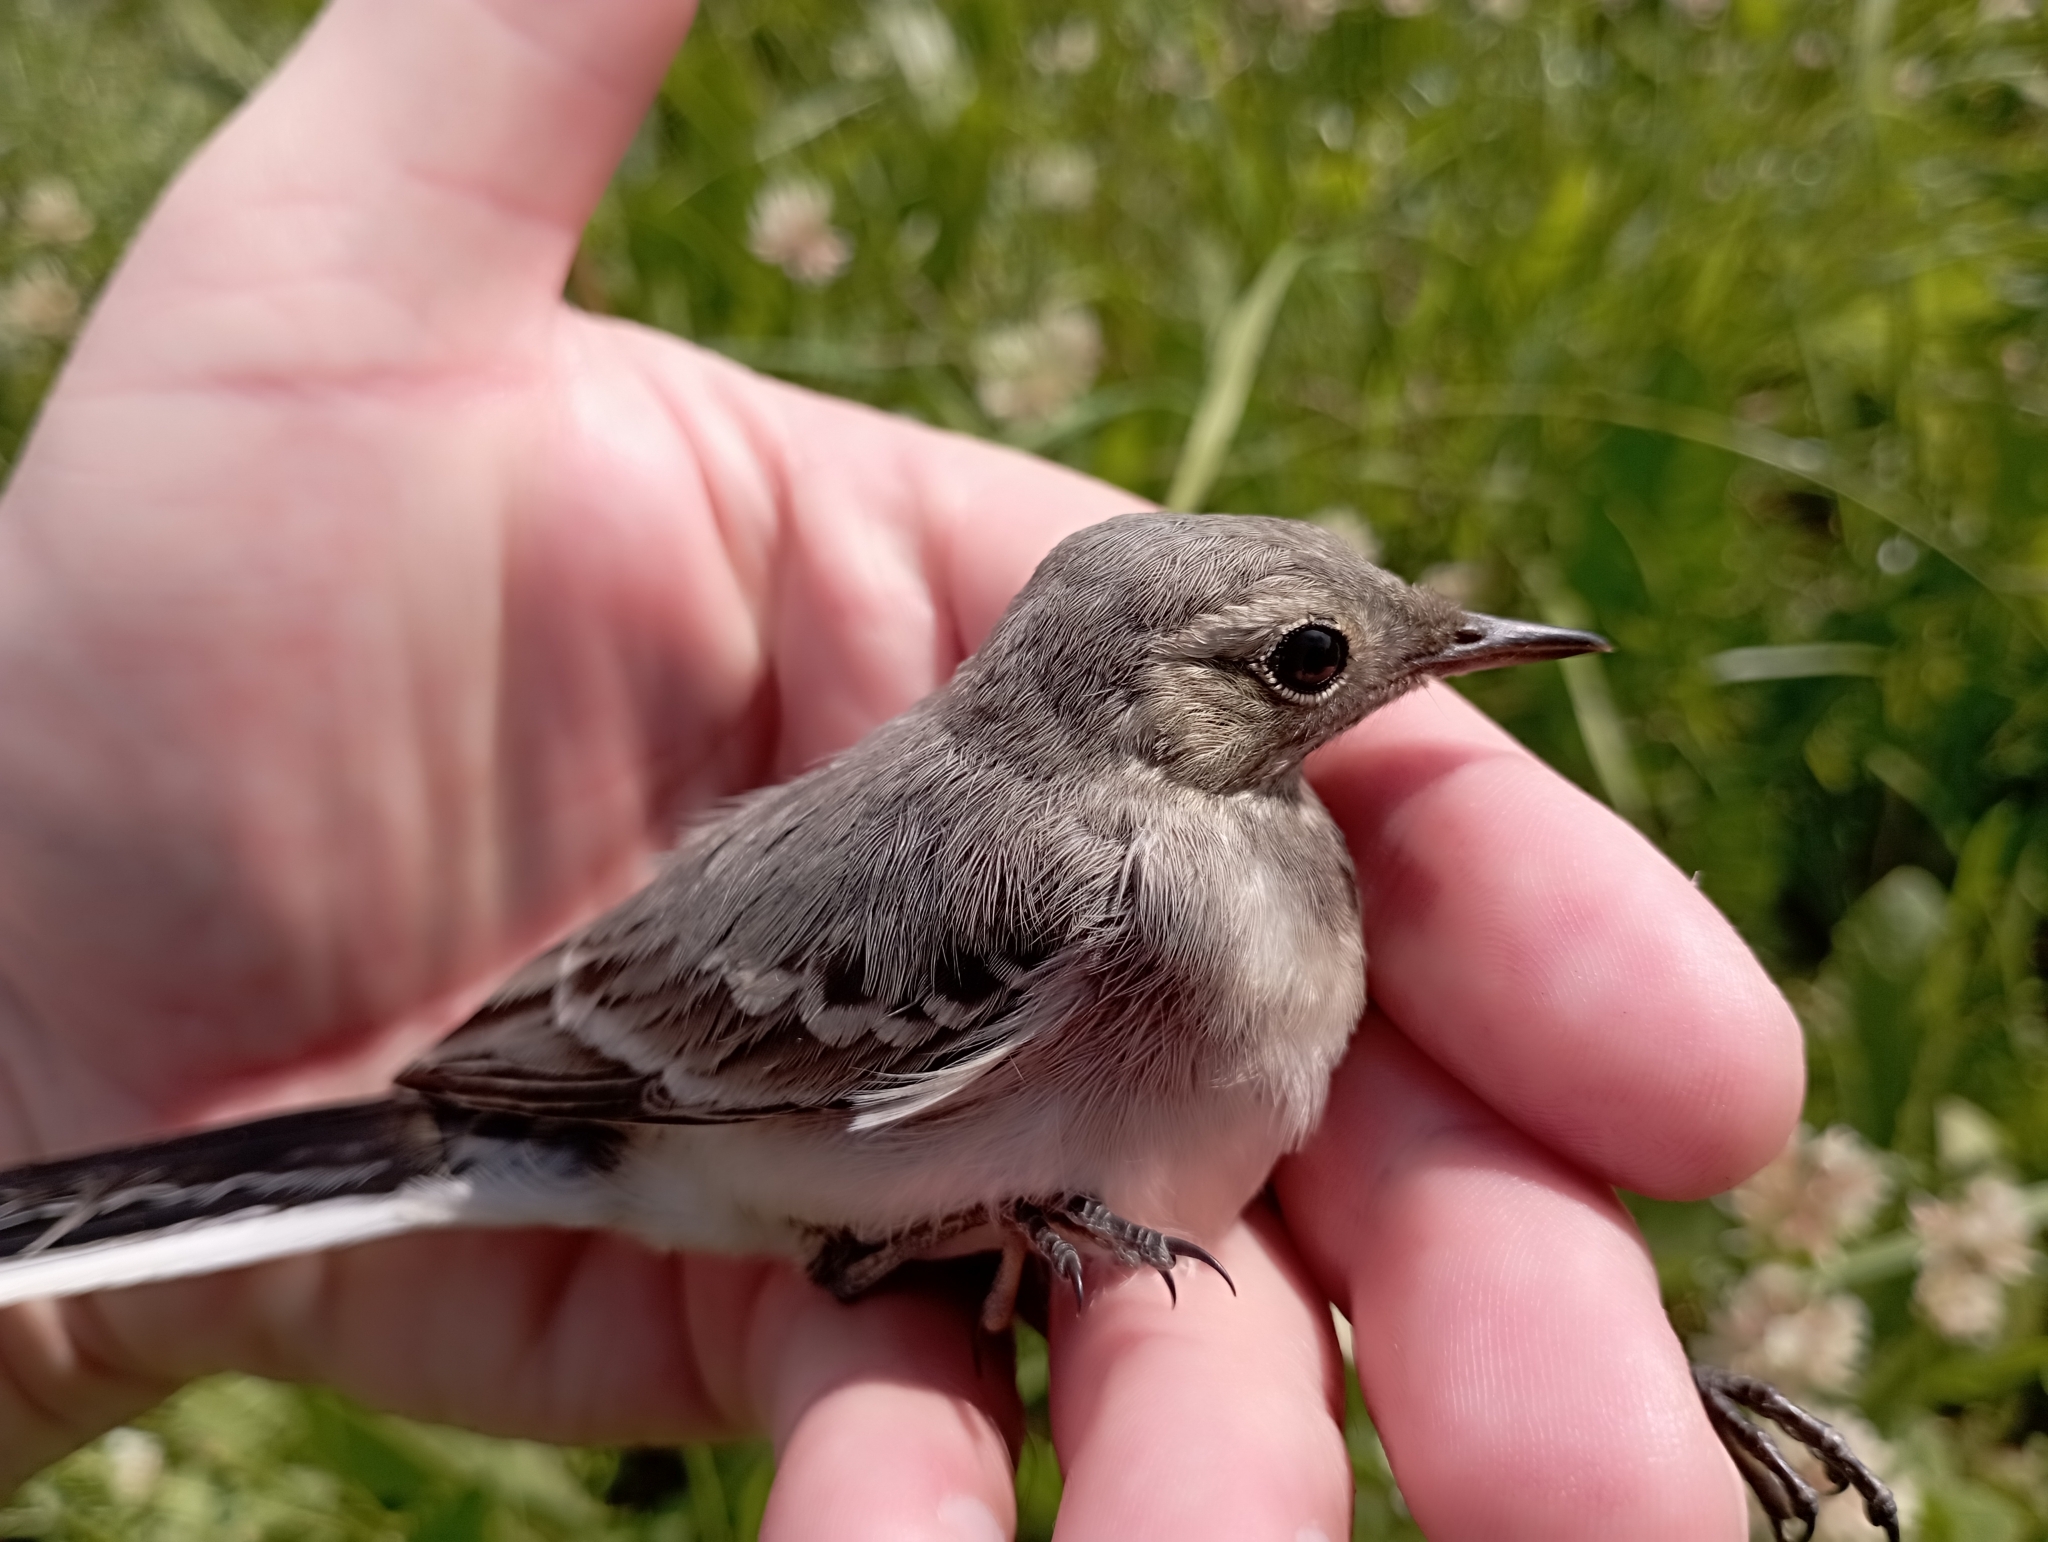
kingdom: Animalia
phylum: Chordata
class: Aves
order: Passeriformes
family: Motacillidae
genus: Motacilla
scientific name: Motacilla alba
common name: White wagtail
